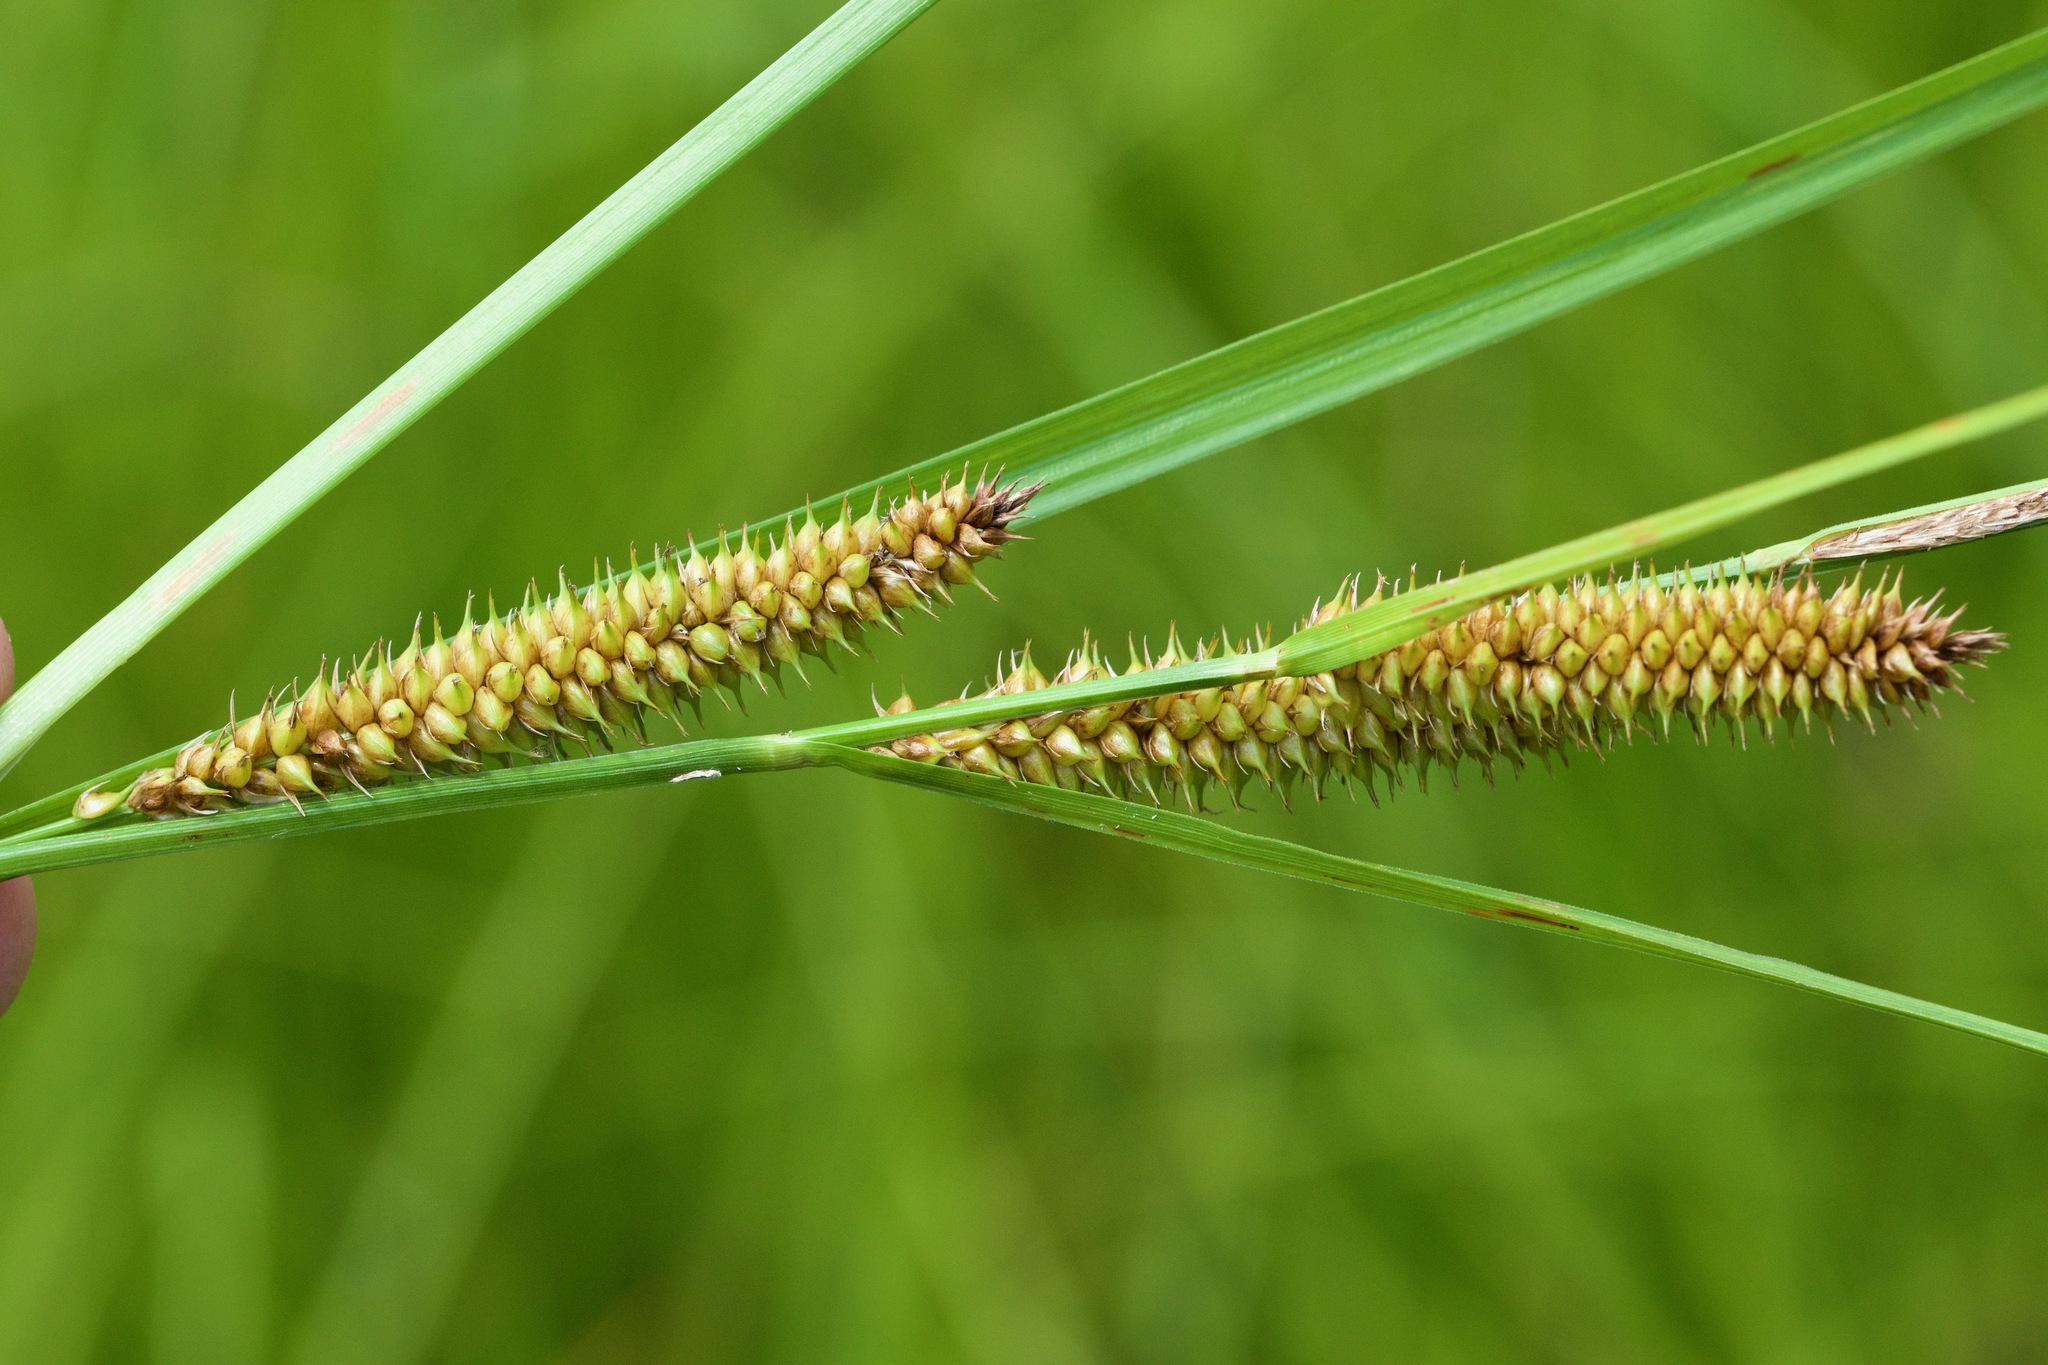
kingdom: Plantae
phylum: Tracheophyta
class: Liliopsida
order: Poales
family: Cyperaceae
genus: Carex
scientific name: Carex utriculata
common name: Beaked sedge
